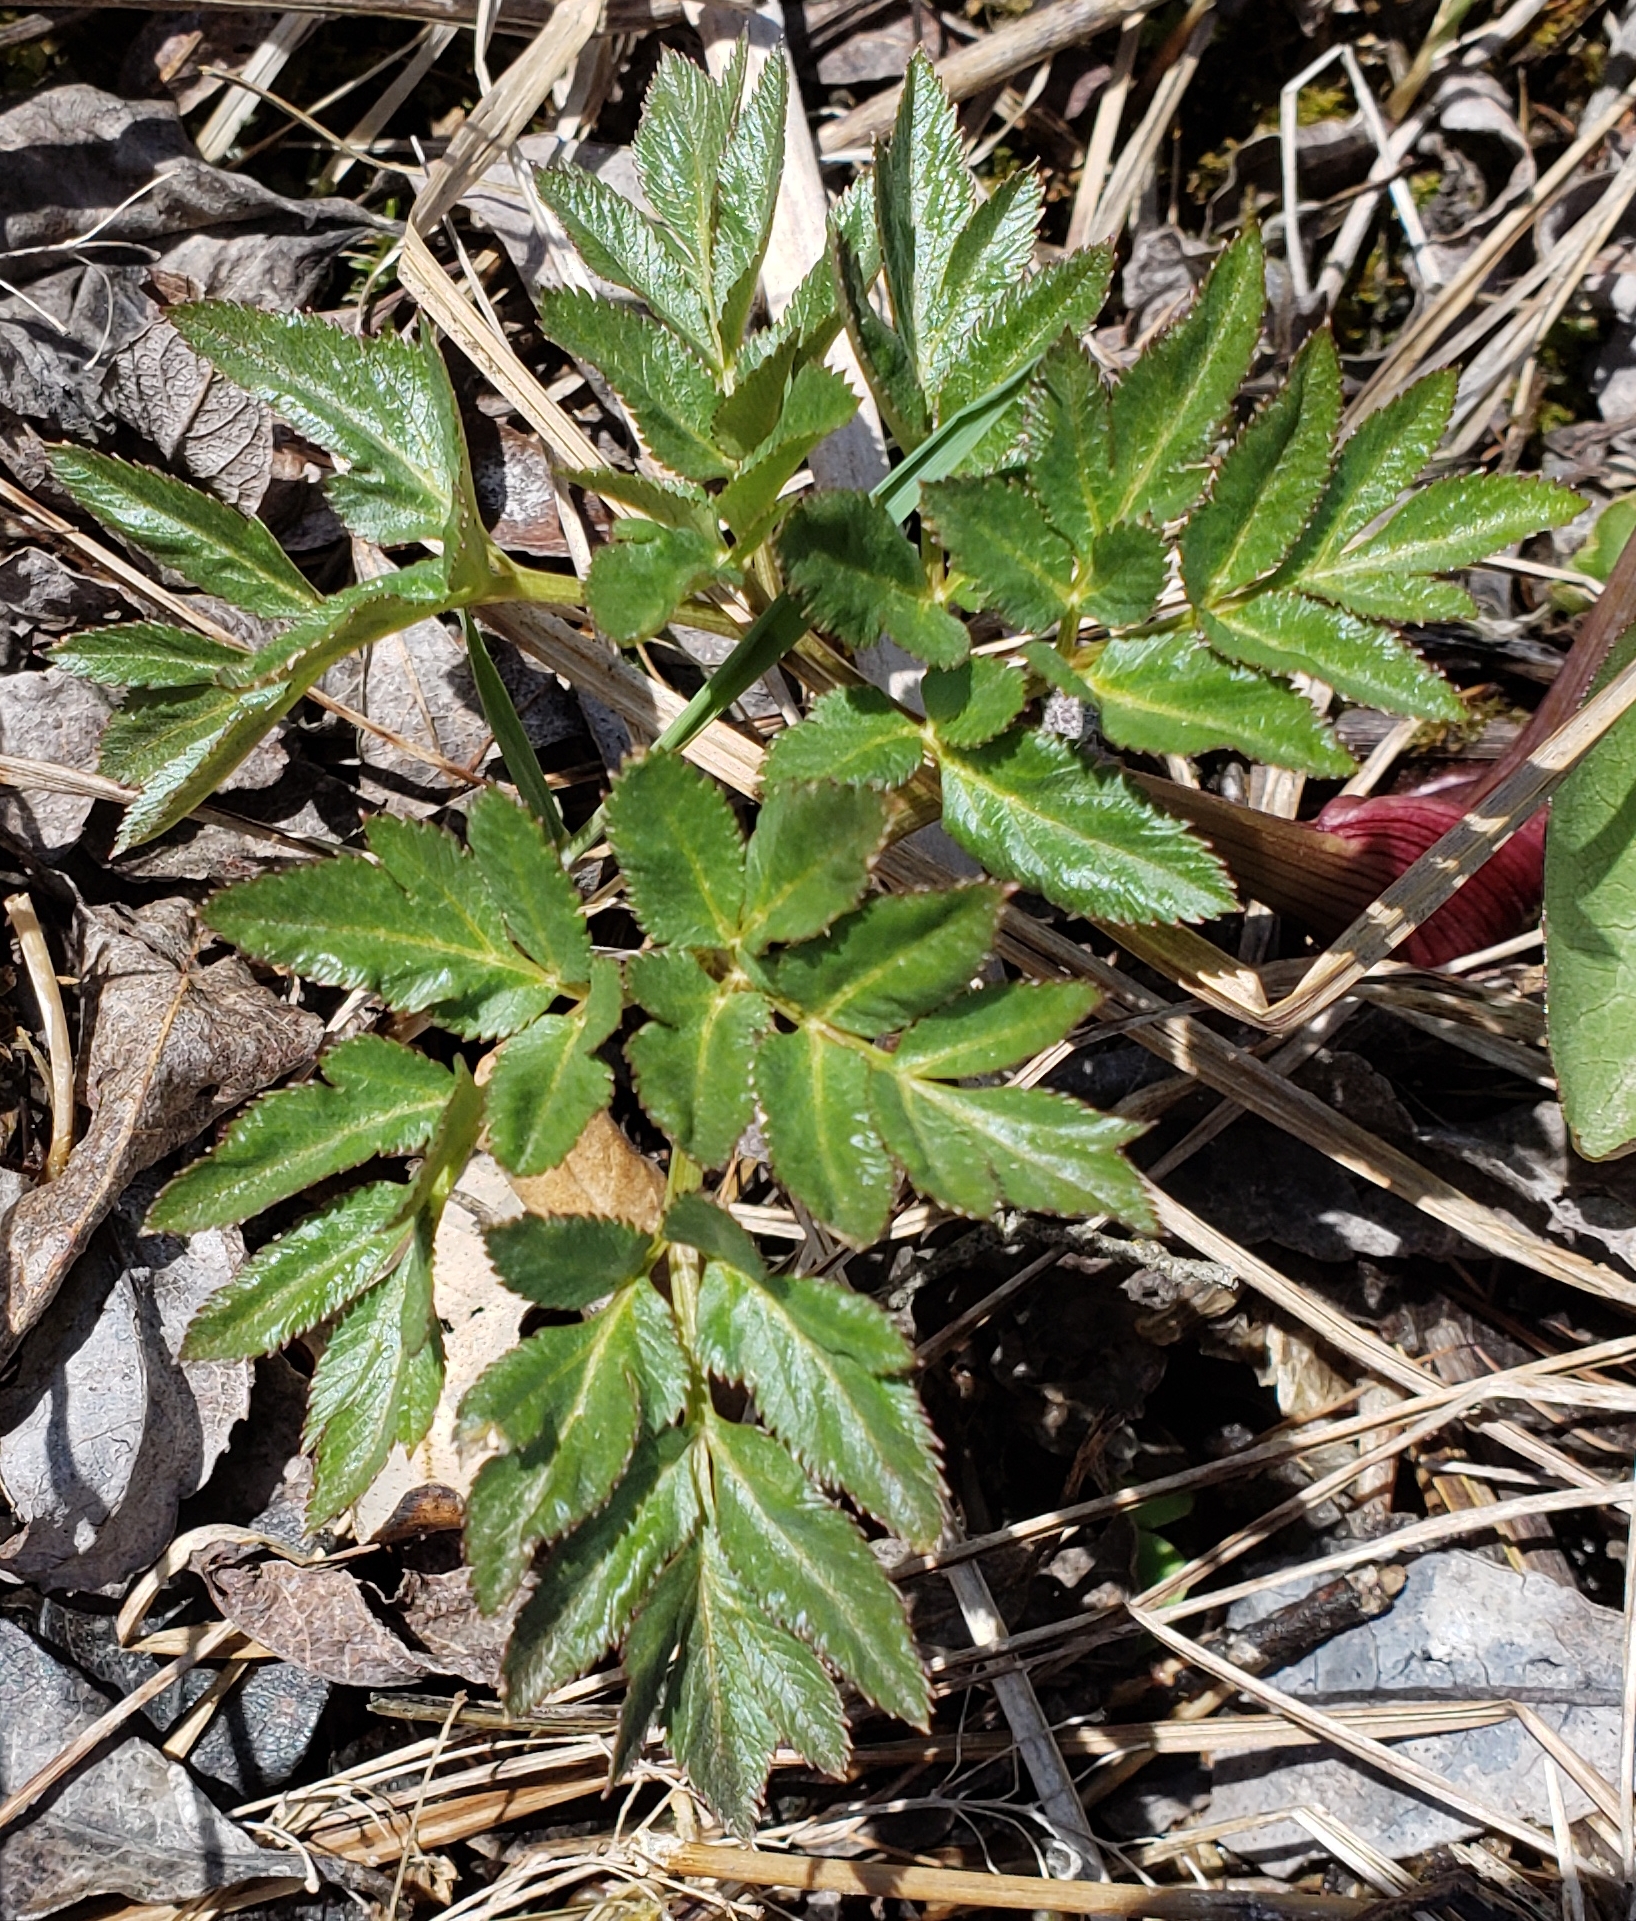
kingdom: Plantae
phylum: Tracheophyta
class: Magnoliopsida
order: Apiales
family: Apiaceae
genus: Angelica
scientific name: Angelica atropurpurea
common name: Great angelica
